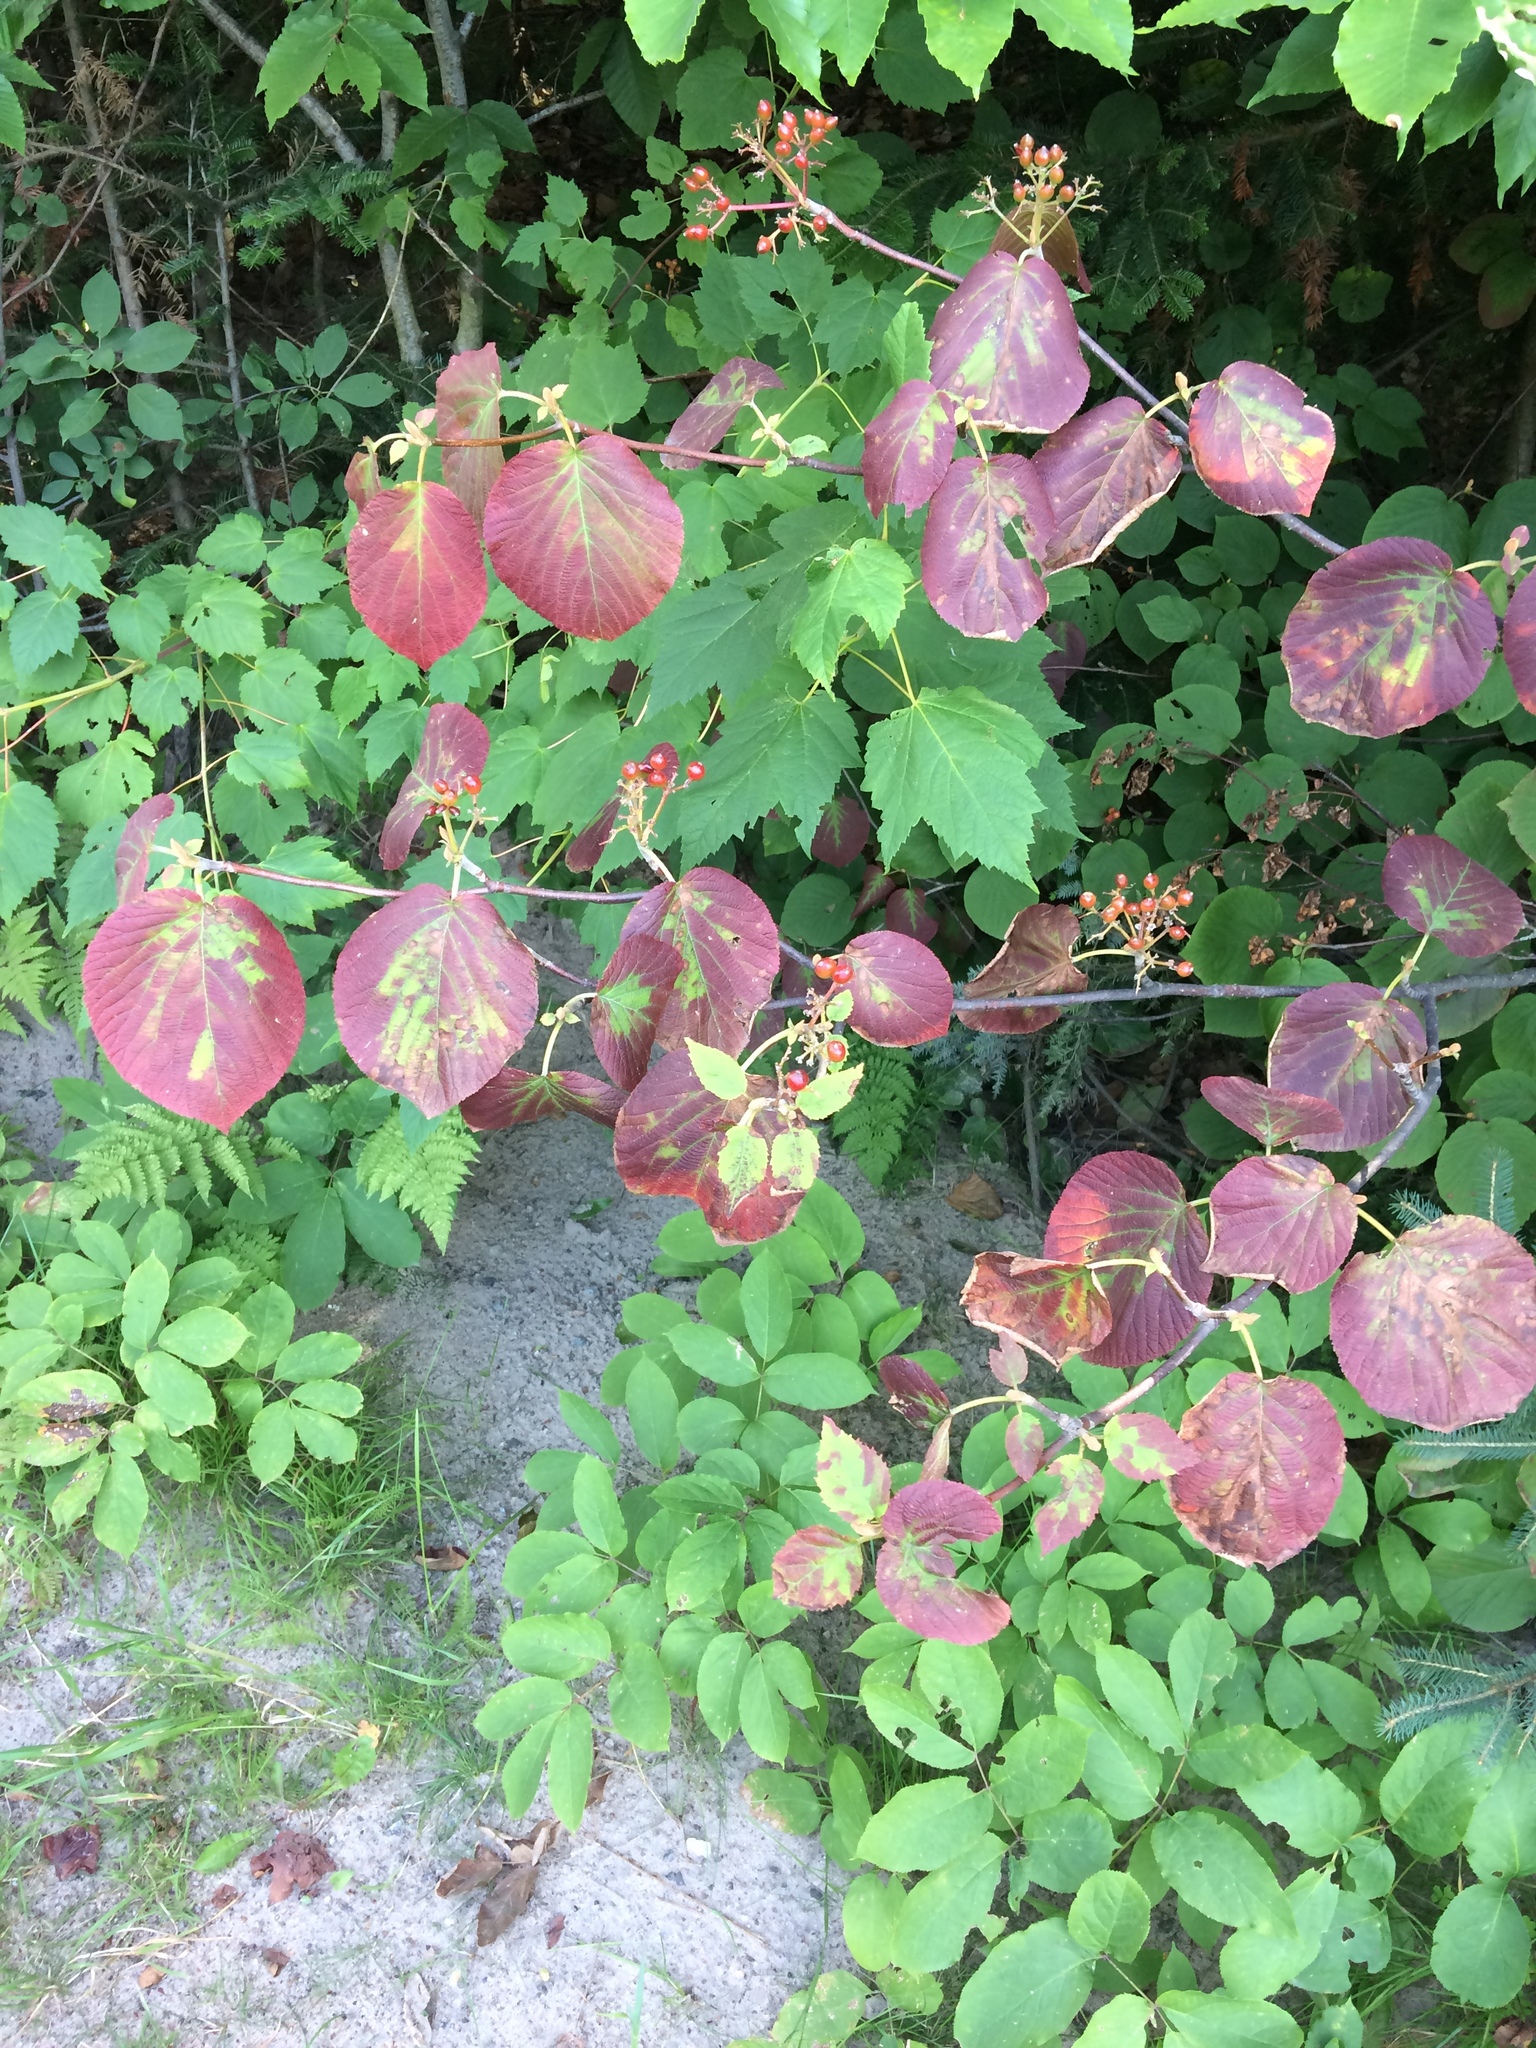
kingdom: Plantae
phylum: Tracheophyta
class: Magnoliopsida
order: Dipsacales
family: Viburnaceae
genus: Viburnum
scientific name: Viburnum lantanoides
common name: Hobblebush
